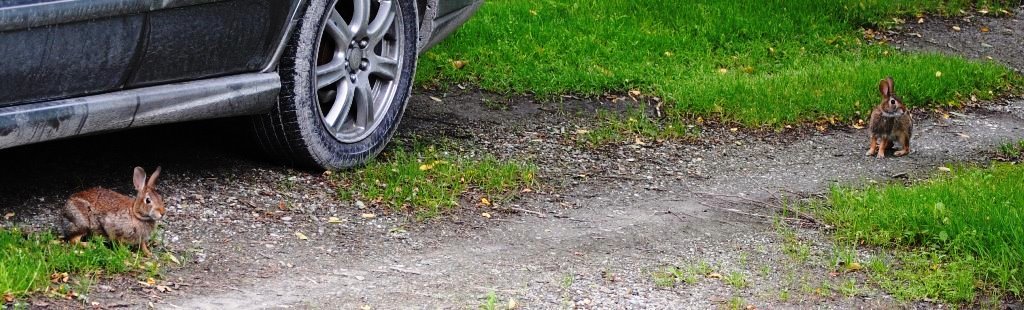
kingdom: Animalia
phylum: Chordata
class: Mammalia
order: Lagomorpha
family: Leporidae
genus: Sylvilagus
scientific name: Sylvilagus floridanus
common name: Eastern cottontail
